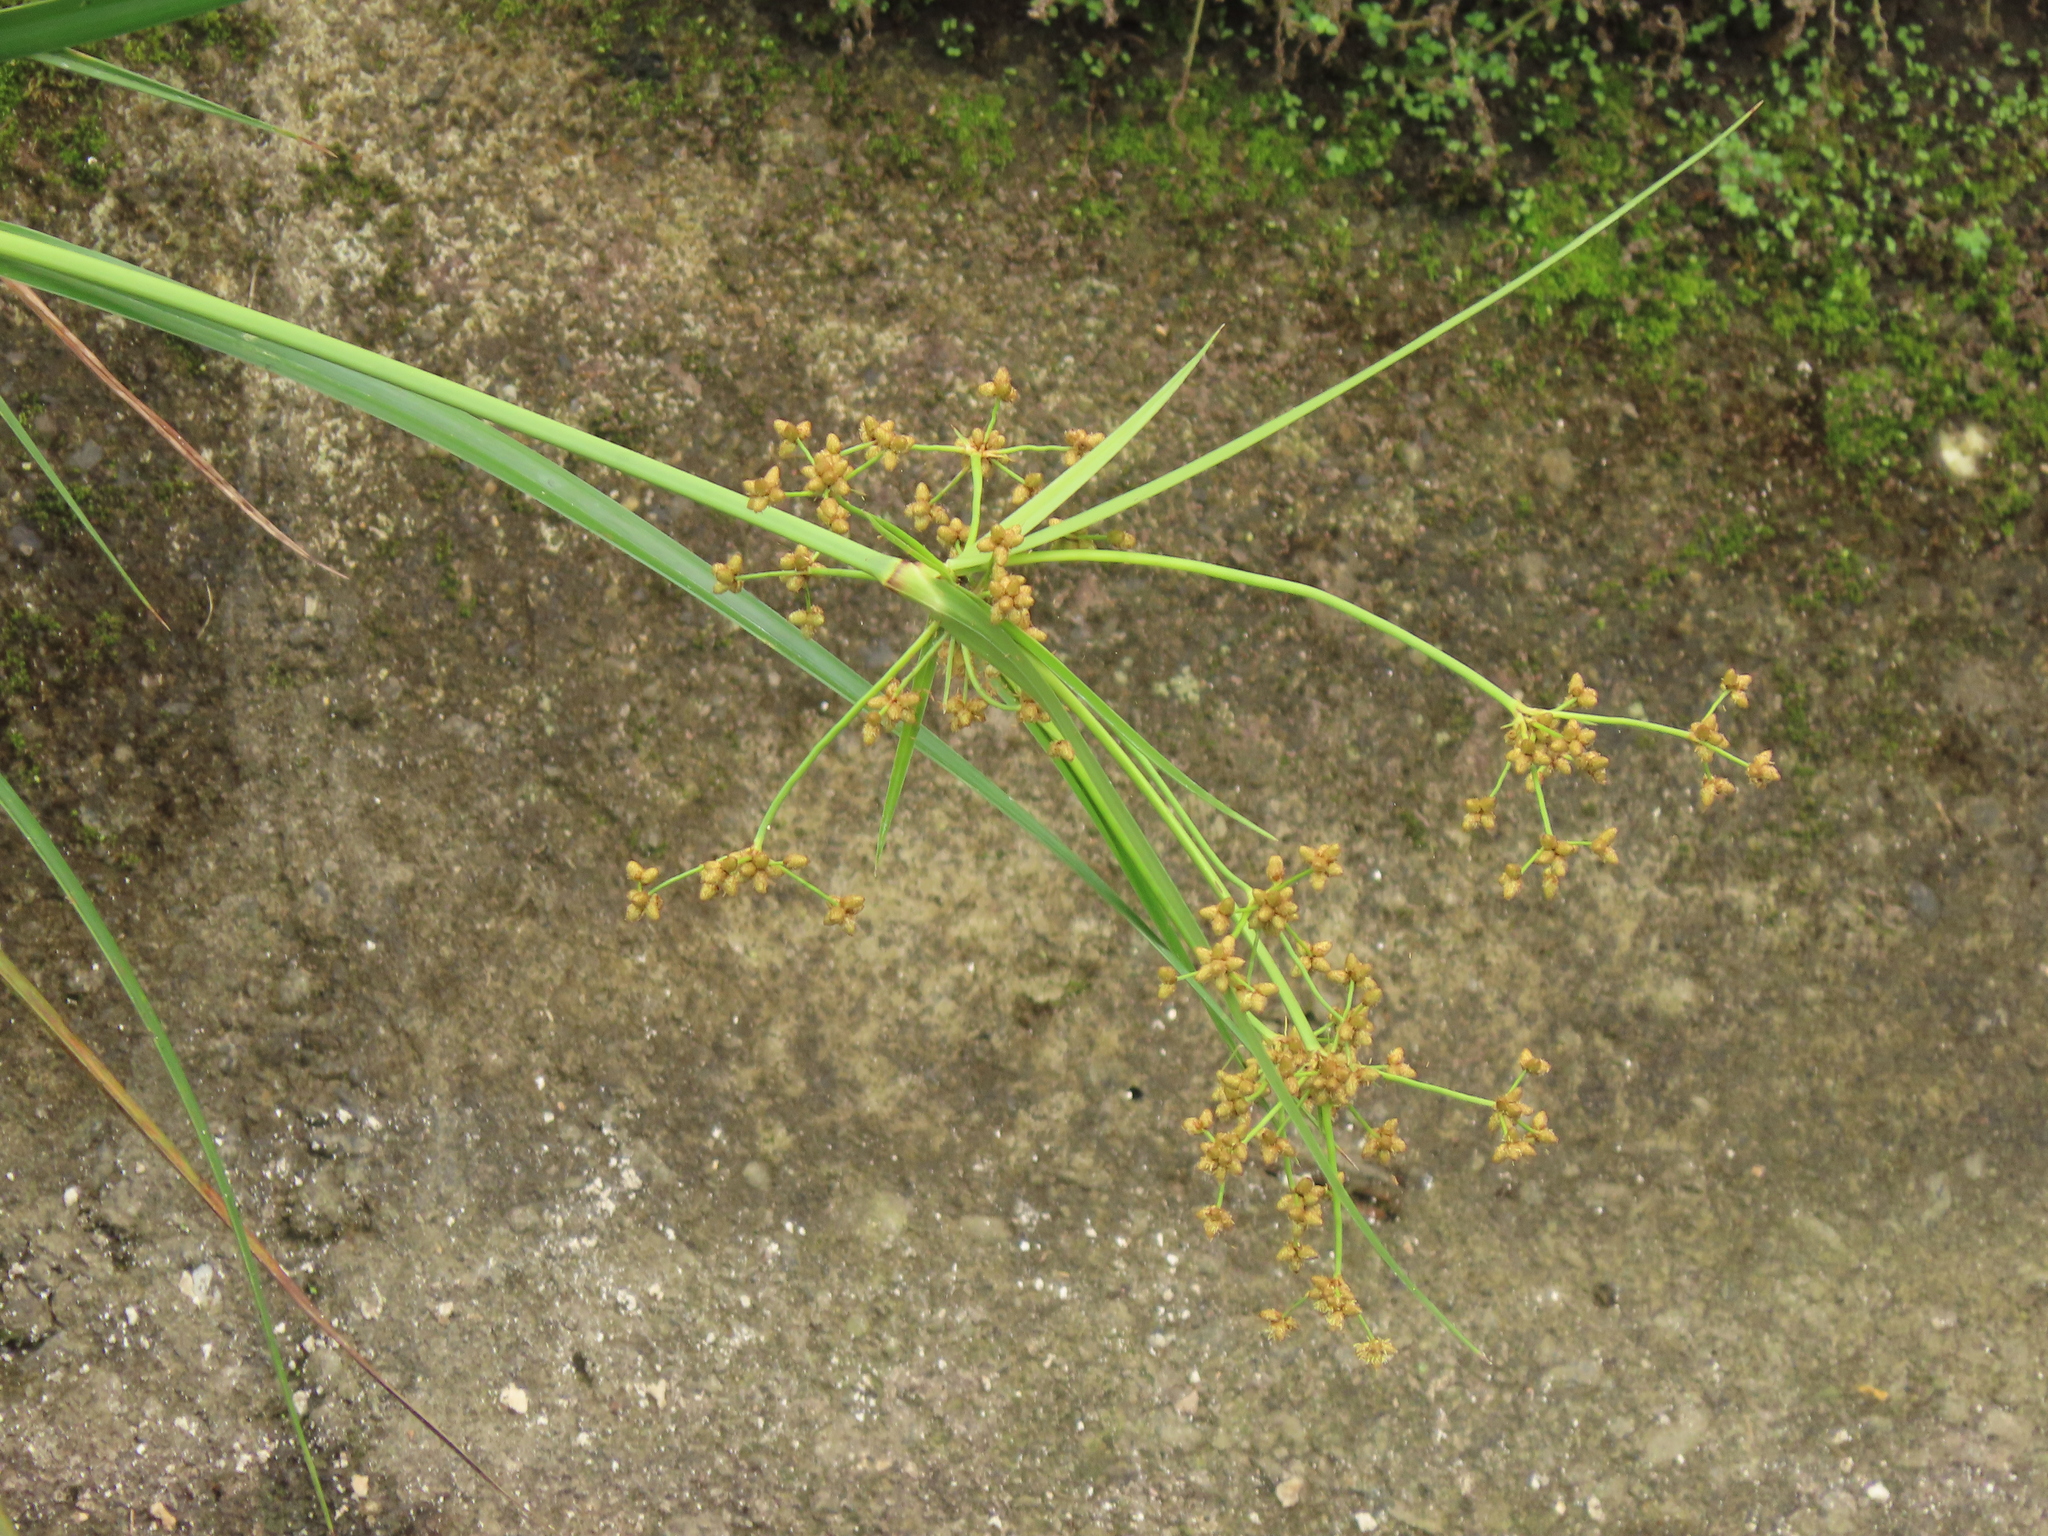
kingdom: Plantae
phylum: Tracheophyta
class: Liliopsida
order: Poales
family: Cyperaceae
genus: Scirpus
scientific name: Scirpus ternatanus
